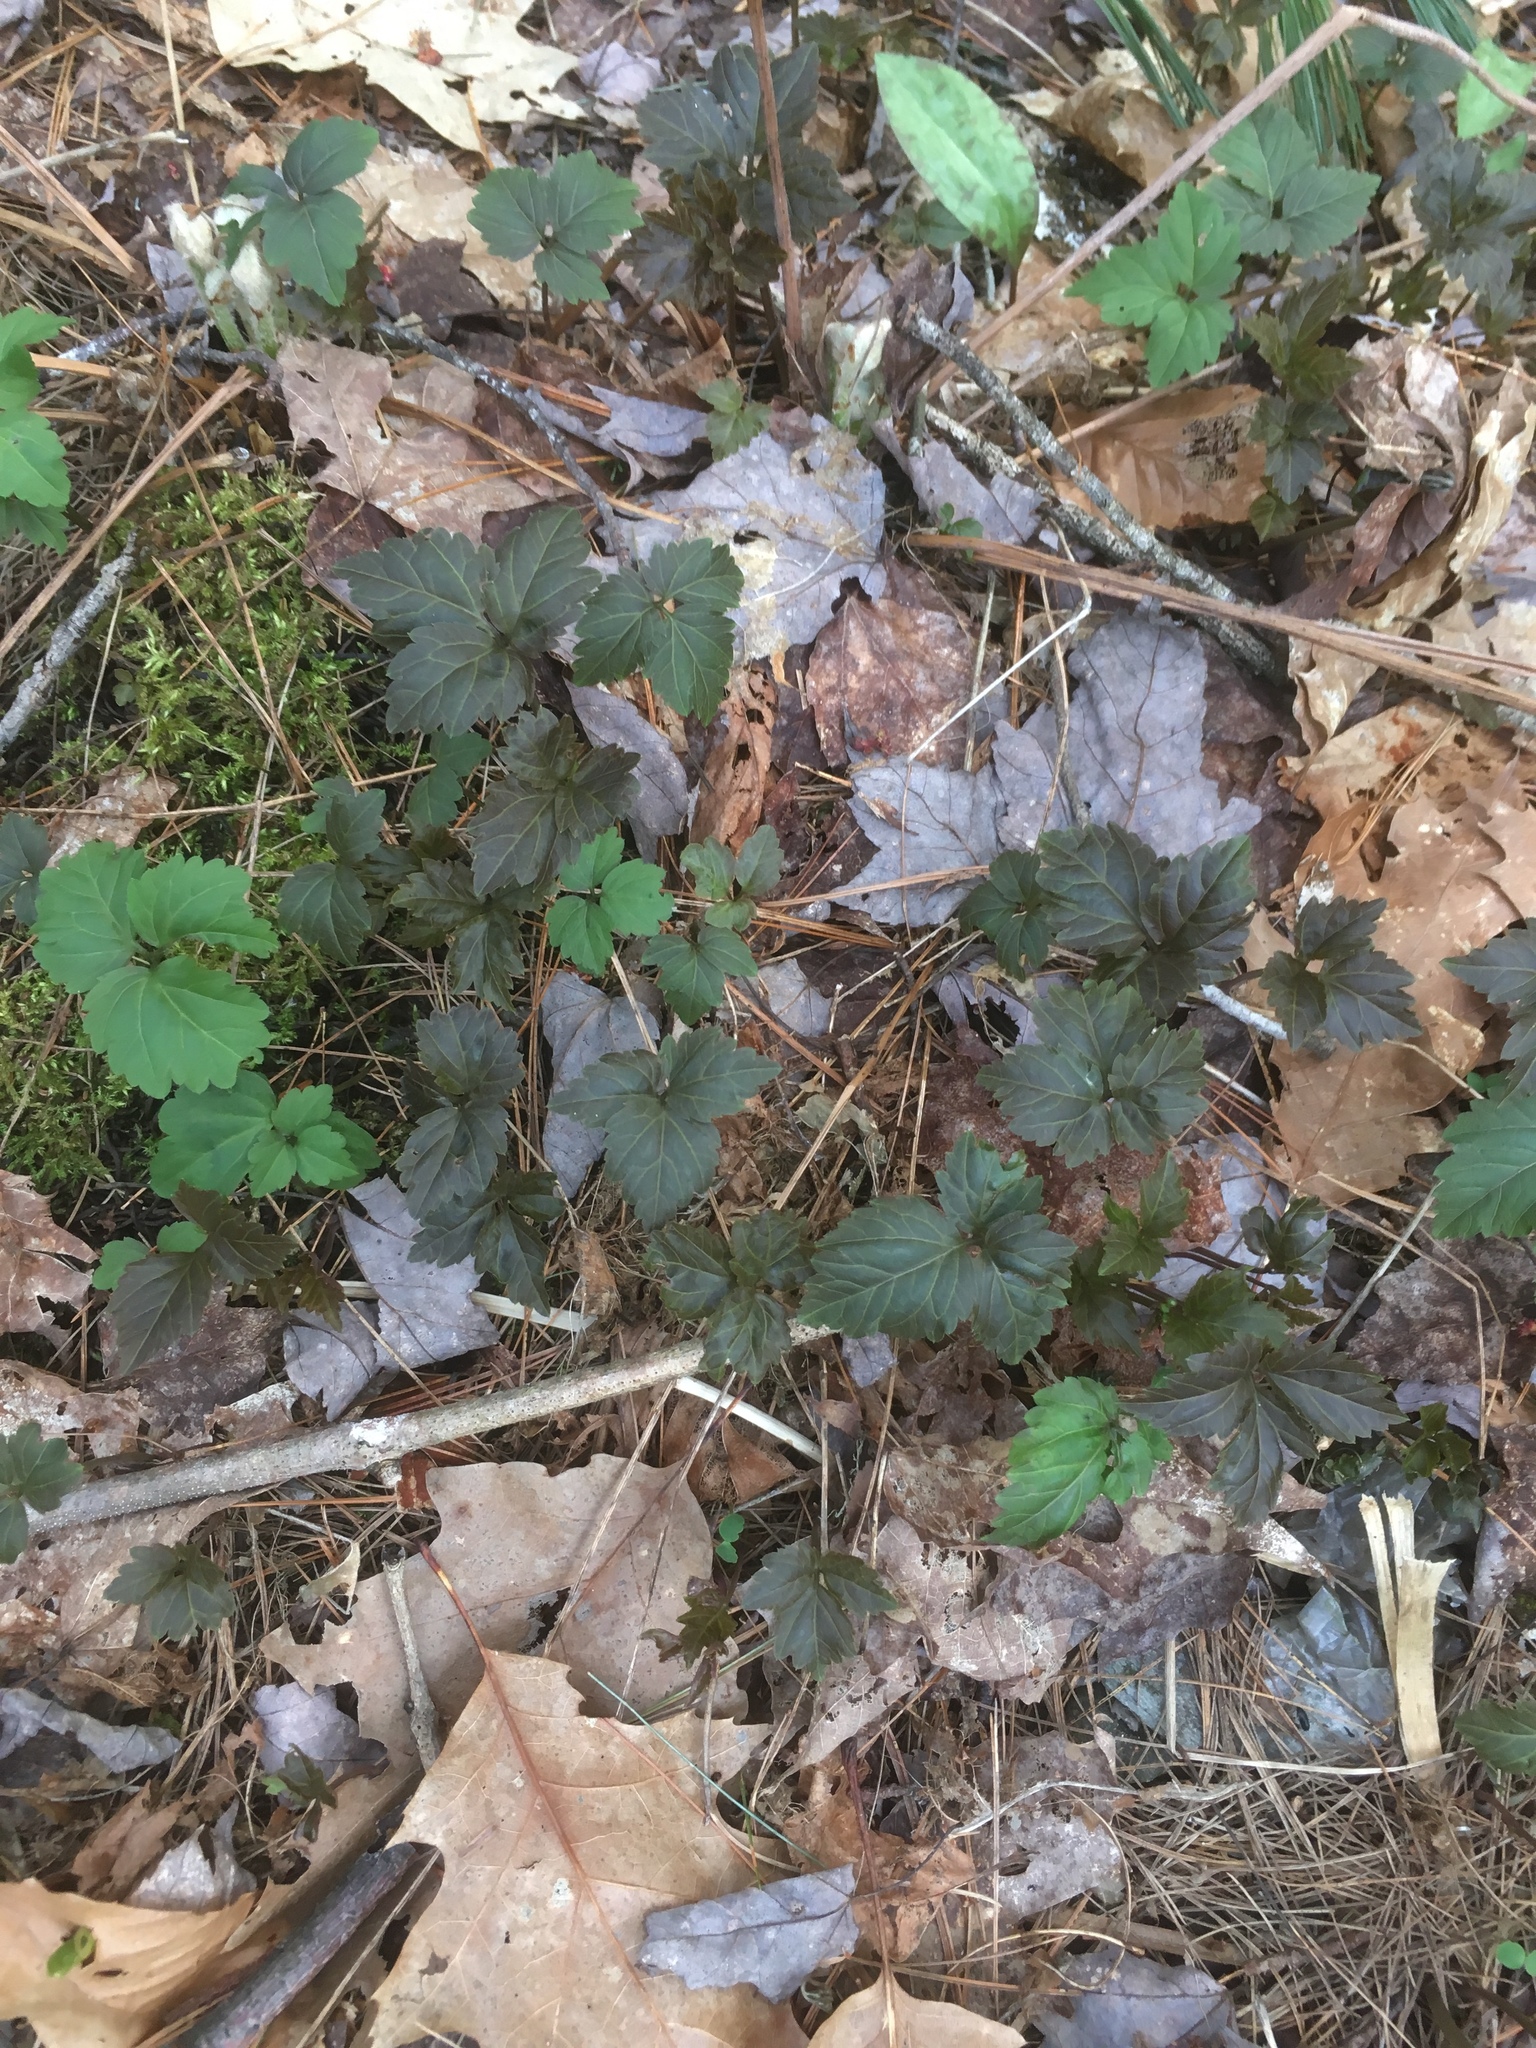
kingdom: Plantae
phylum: Tracheophyta
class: Magnoliopsida
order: Brassicales
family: Brassicaceae
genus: Cardamine
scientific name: Cardamine diphylla
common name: Broad-leaved toothwort
